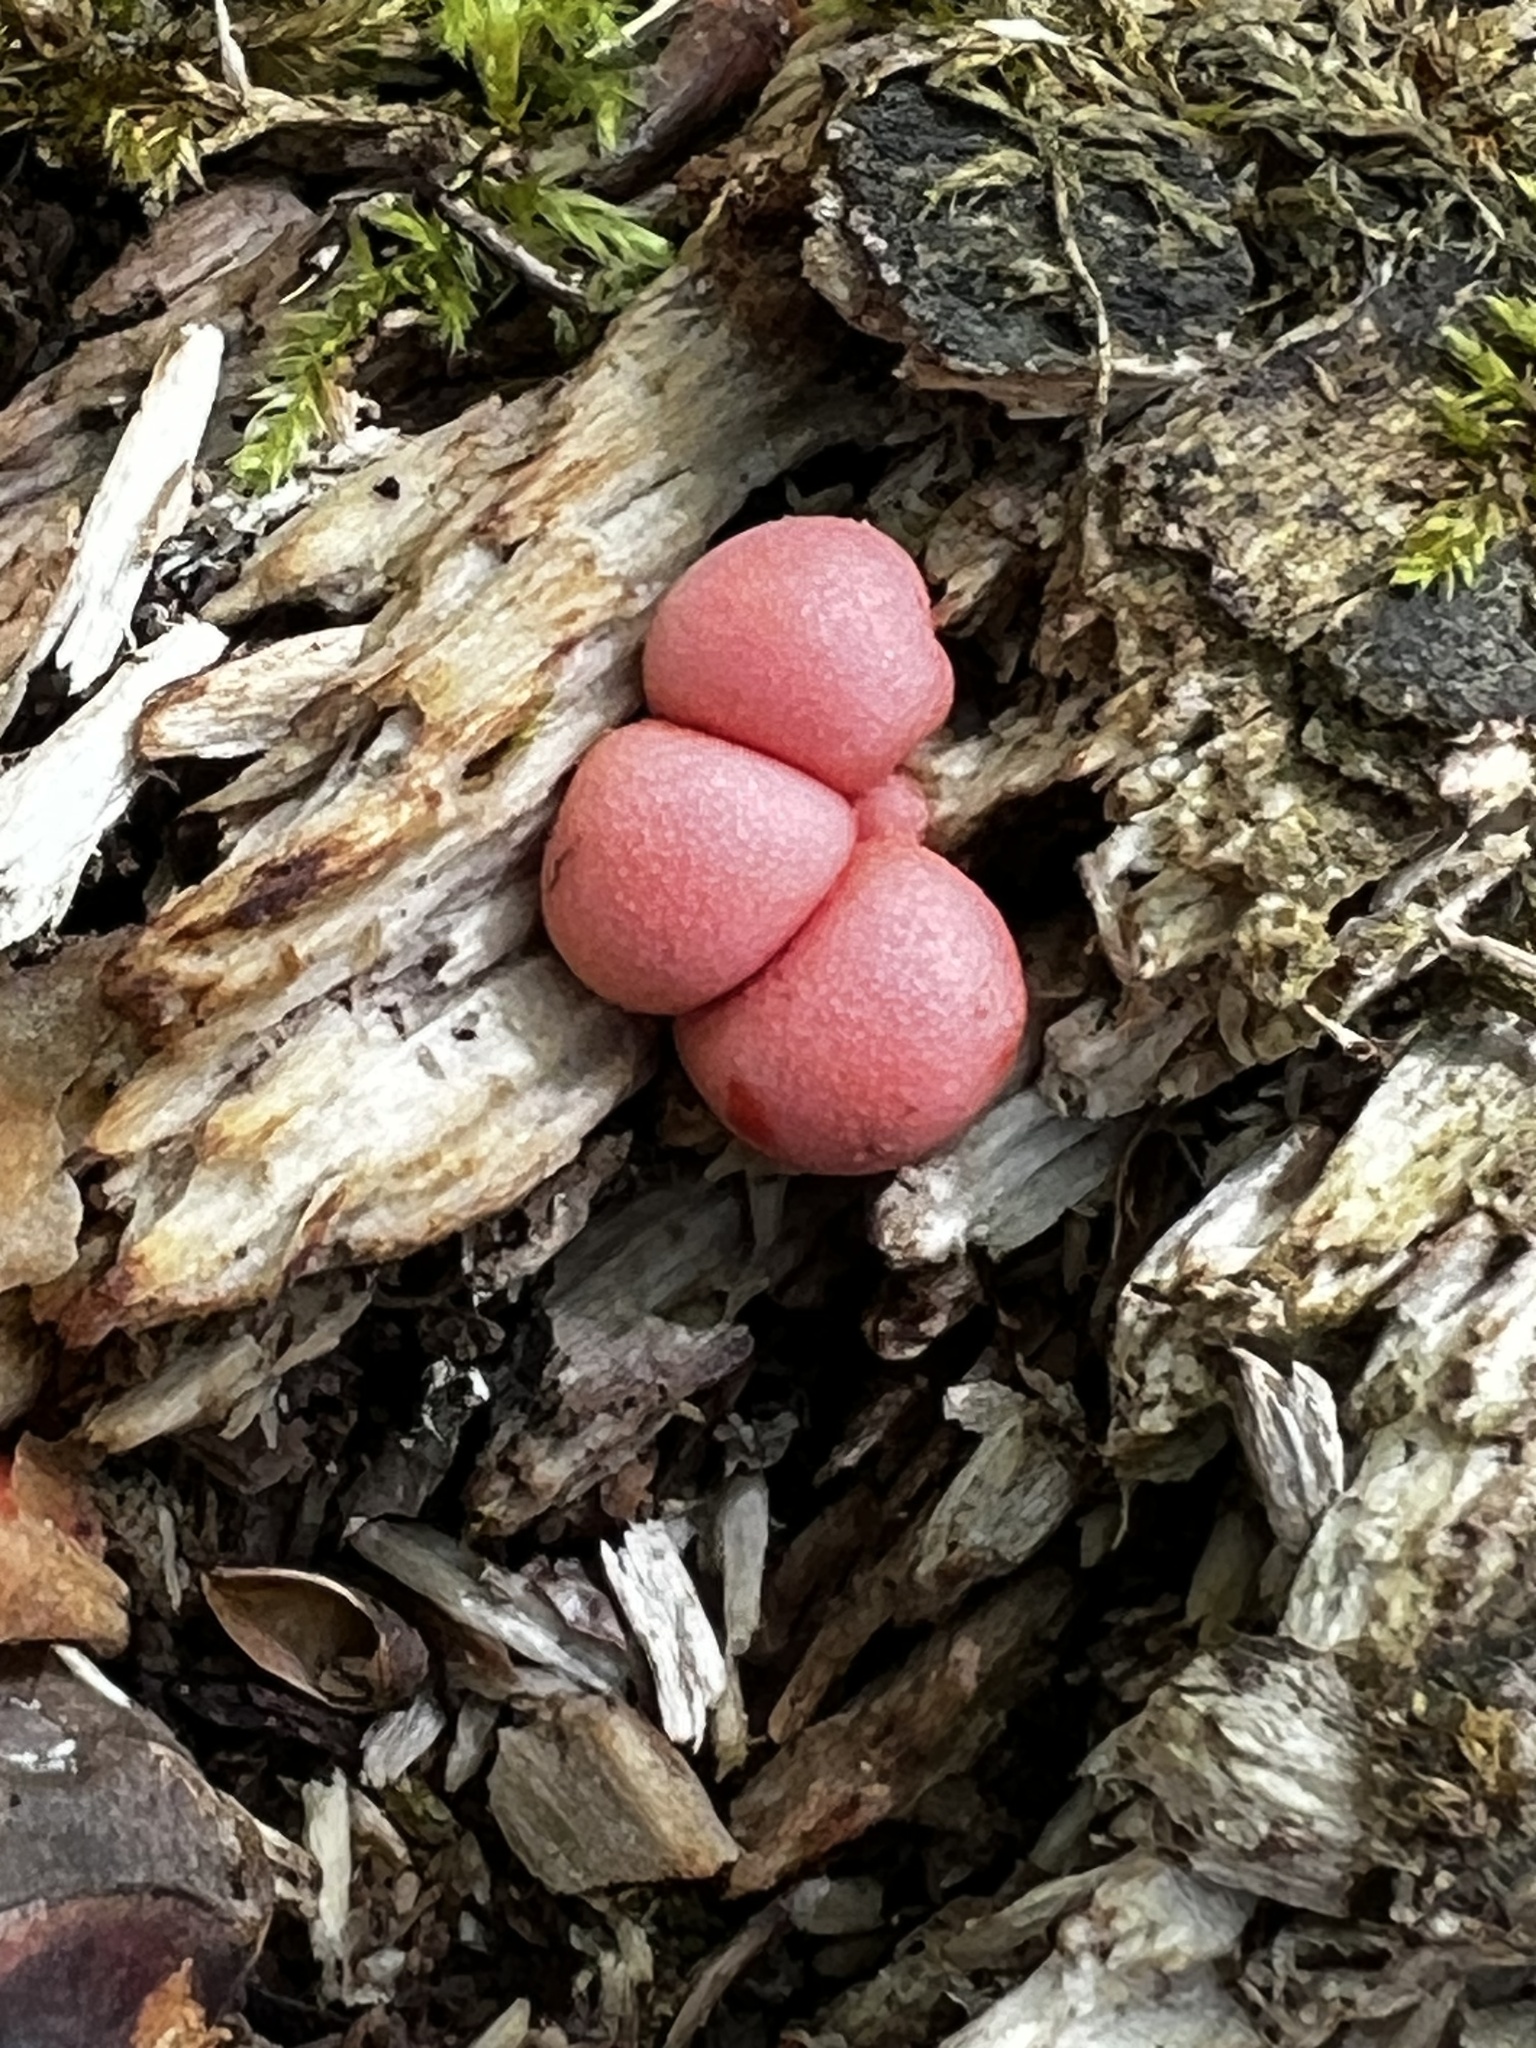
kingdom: Protozoa
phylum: Mycetozoa
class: Myxomycetes
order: Cribrariales
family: Tubiferaceae
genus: Lycogala
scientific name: Lycogala epidendrum
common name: Wolf's milk
